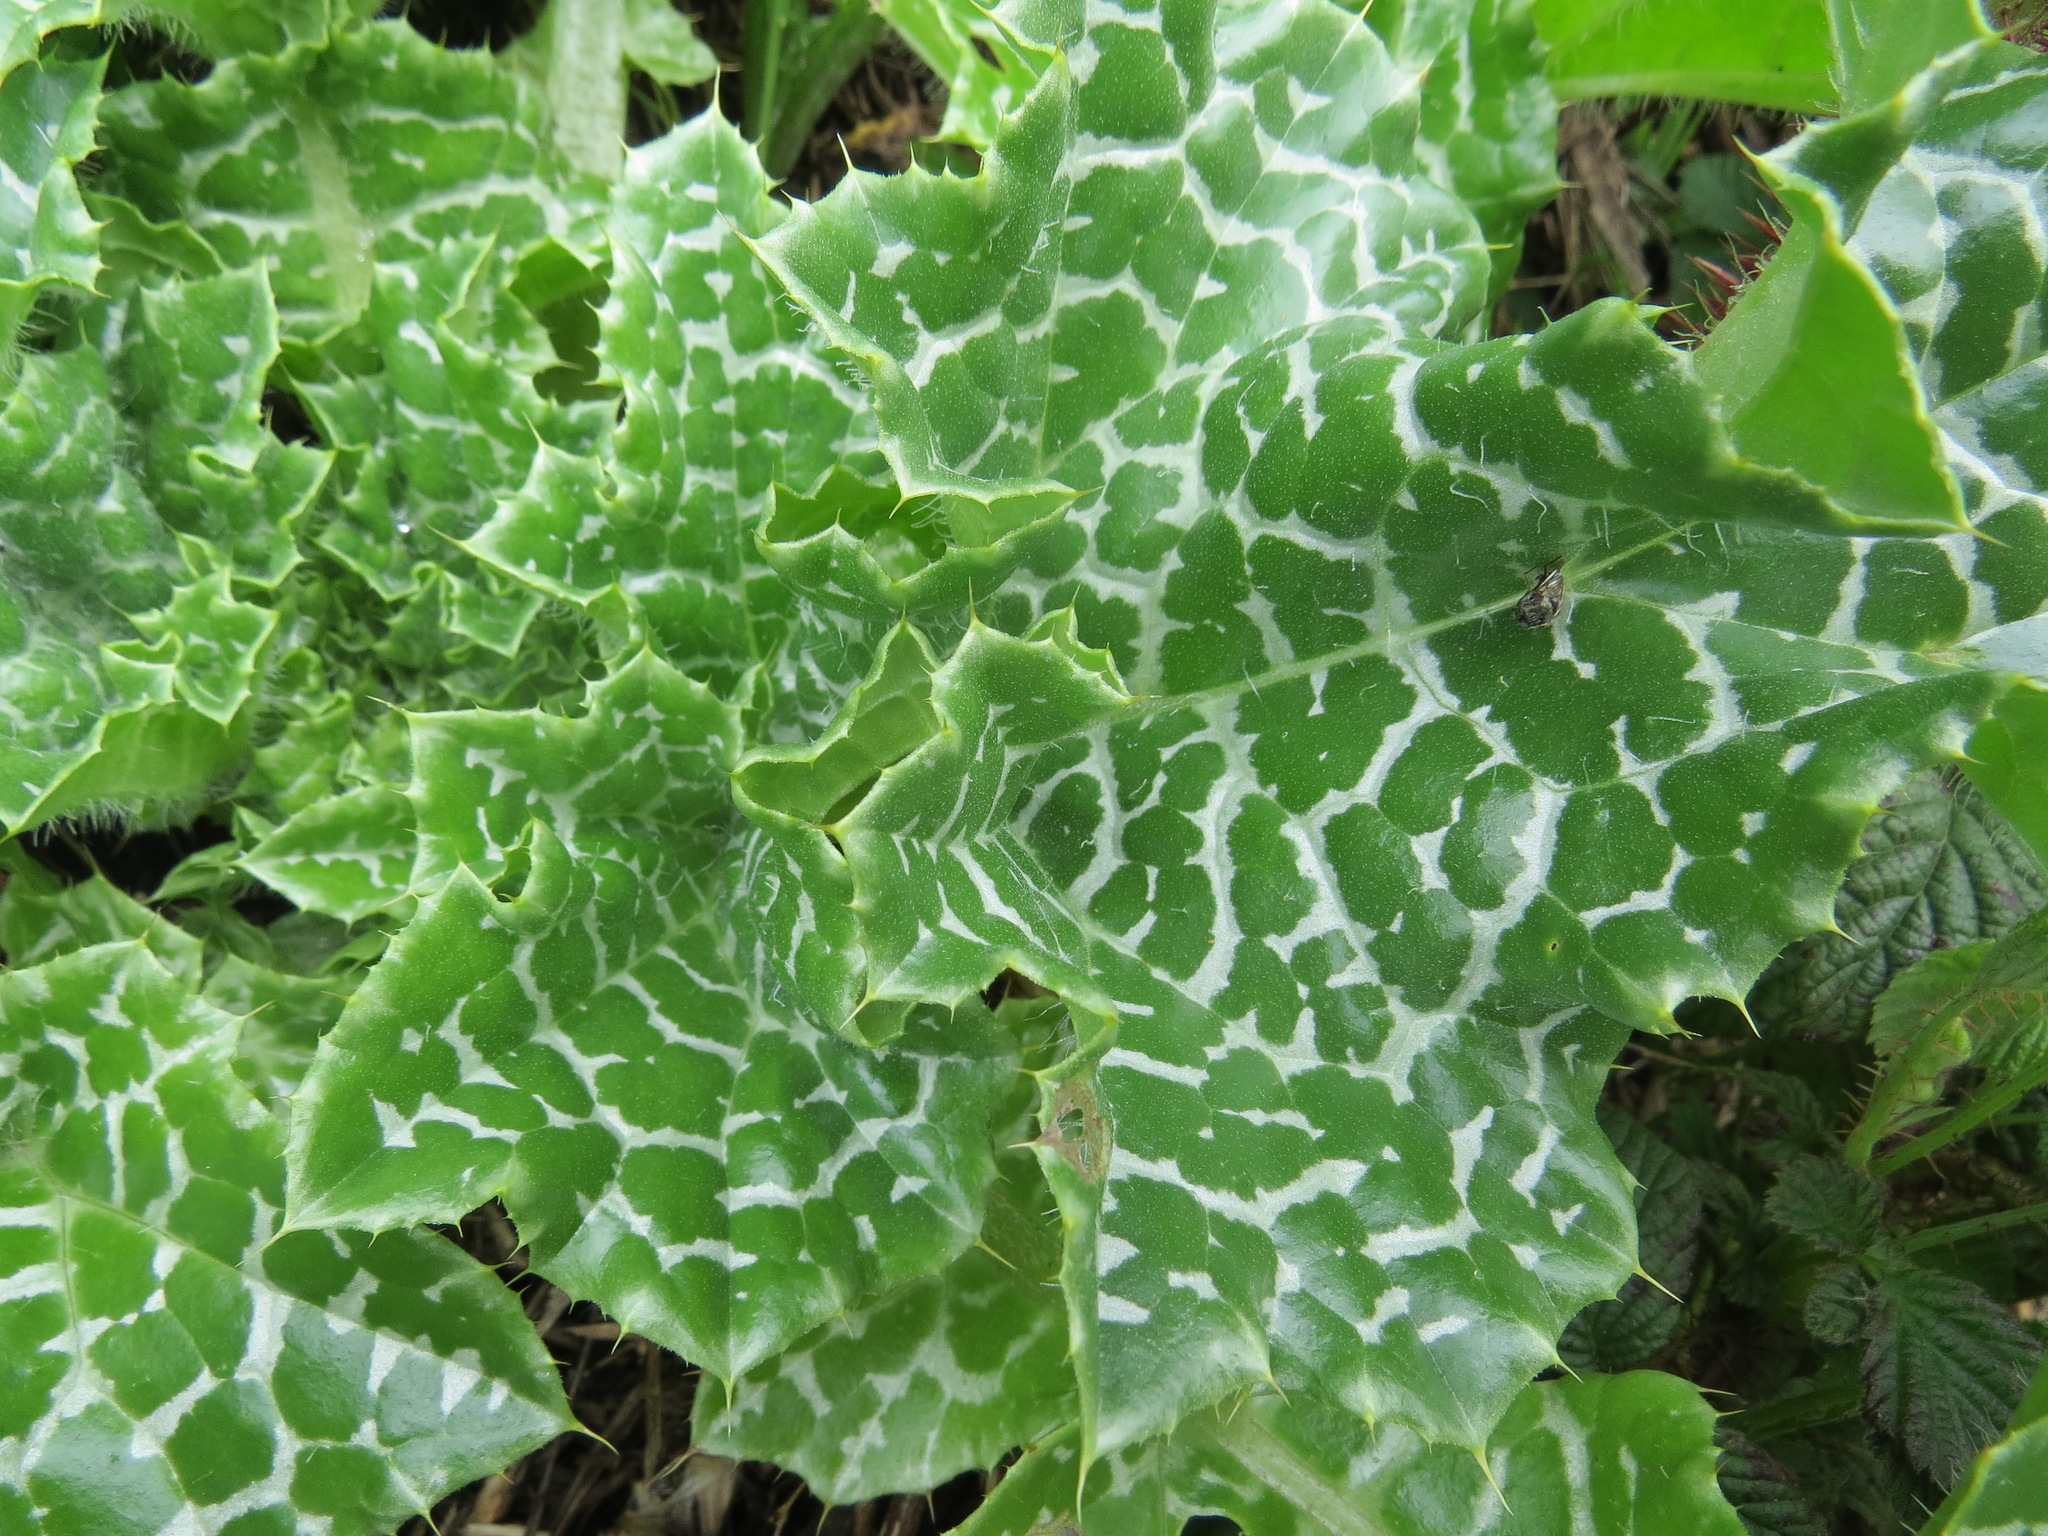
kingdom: Plantae
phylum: Tracheophyta
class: Magnoliopsida
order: Asterales
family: Asteraceae
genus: Silybum
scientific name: Silybum marianum
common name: Milk thistle
